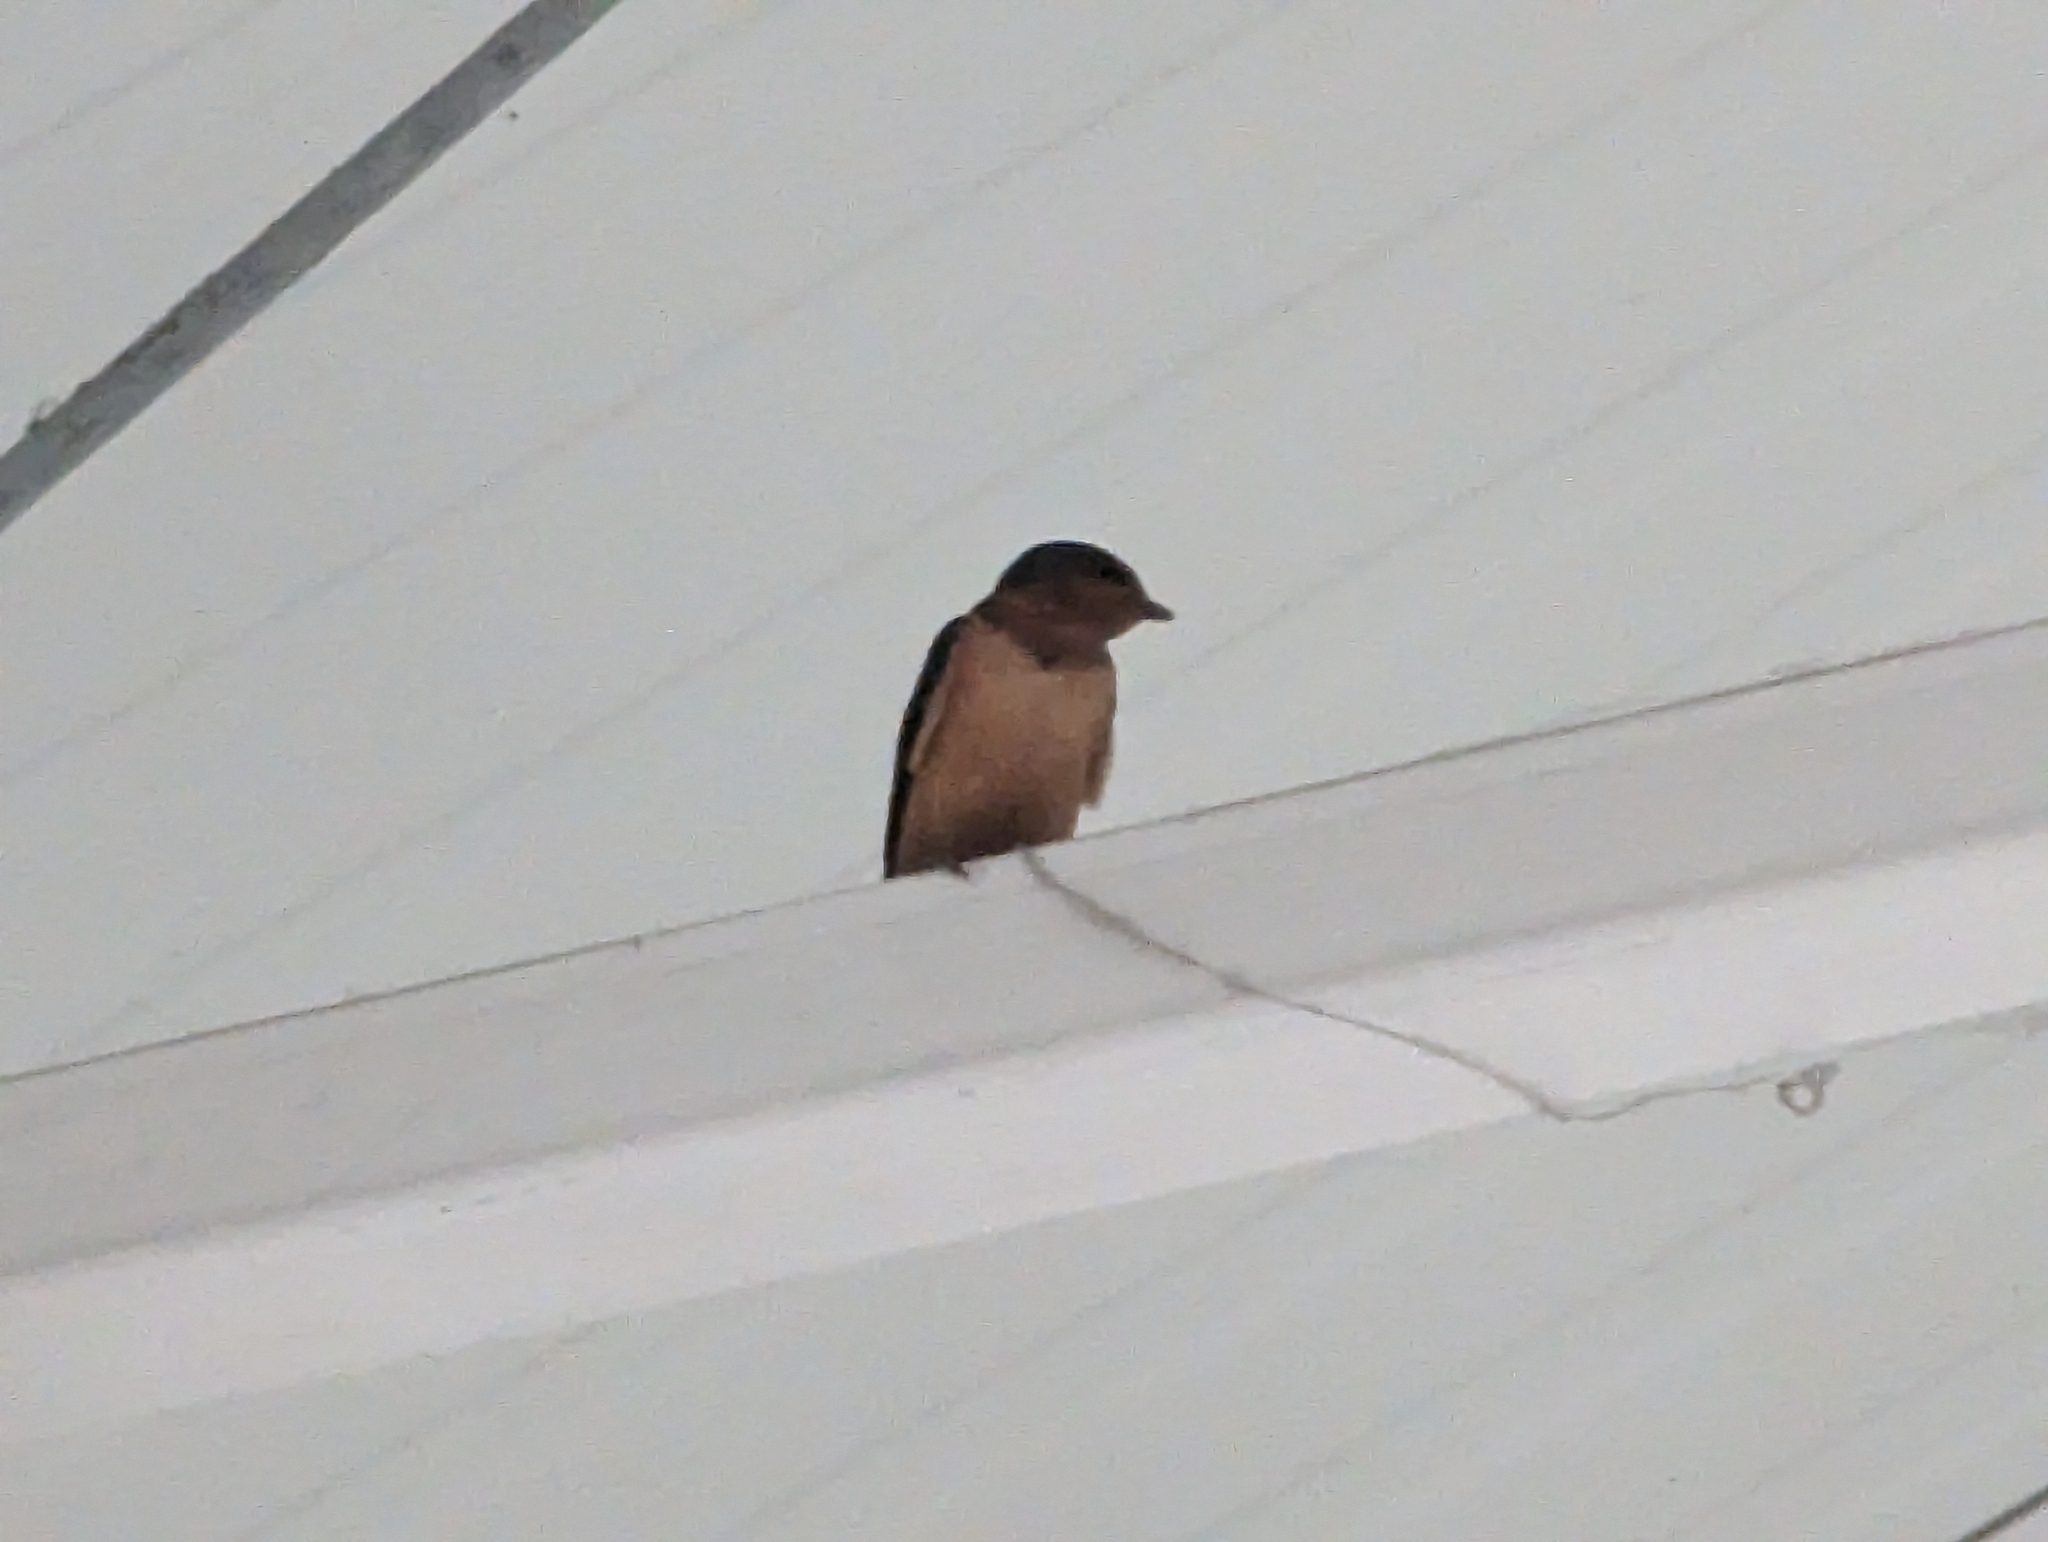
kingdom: Animalia
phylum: Chordata
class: Aves
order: Passeriformes
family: Hirundinidae
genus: Hirundo
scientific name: Hirundo rustica
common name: Barn swallow
